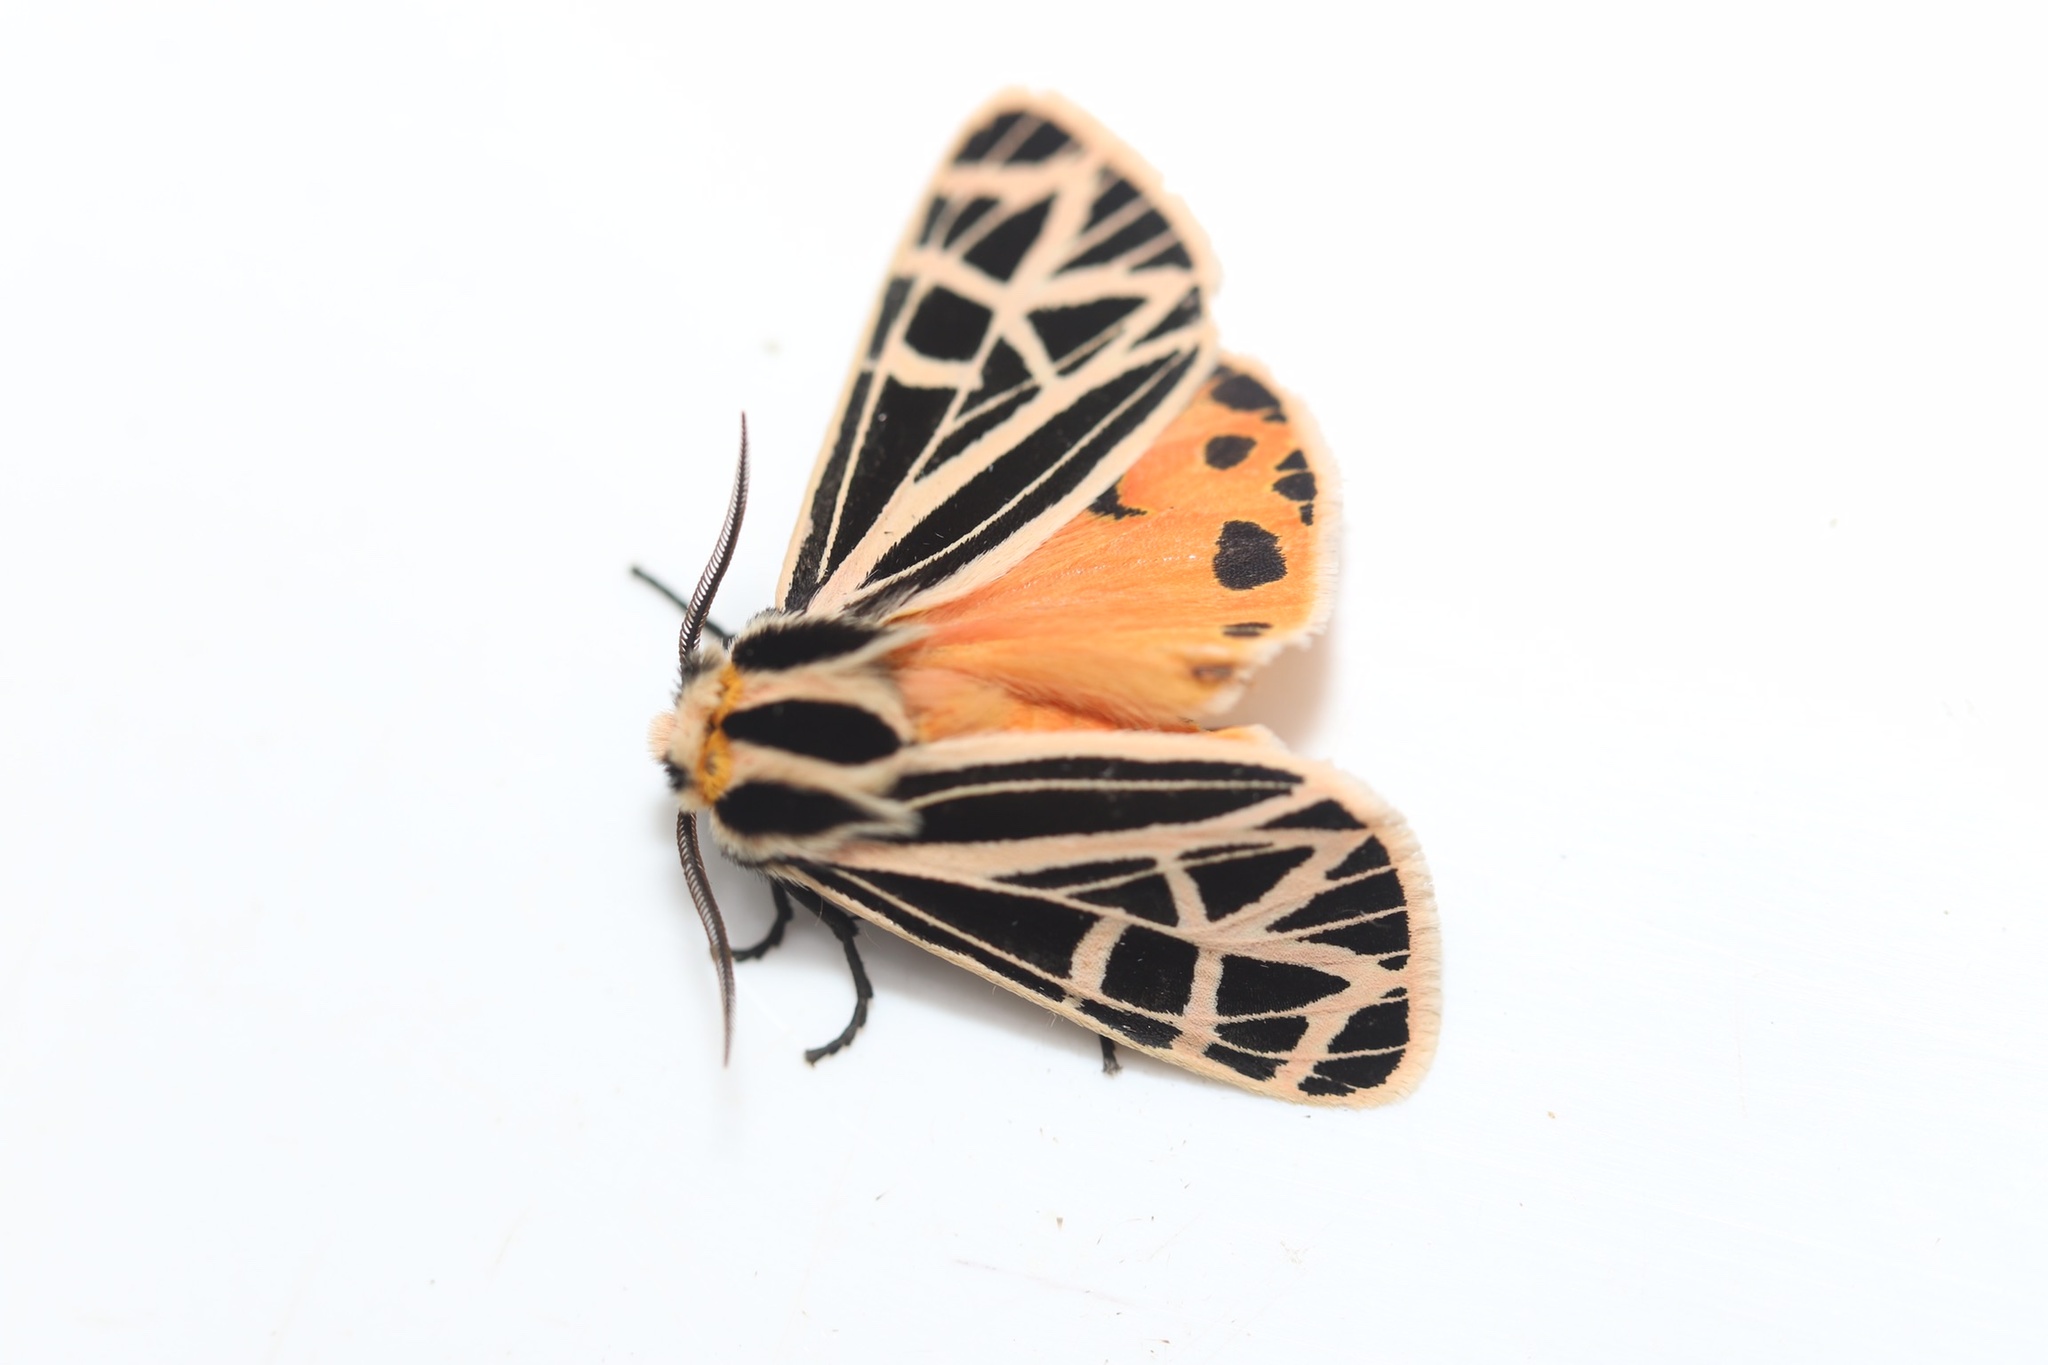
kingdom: Animalia
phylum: Arthropoda
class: Insecta
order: Lepidoptera
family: Erebidae
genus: Grammia
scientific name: Grammia parthenice
